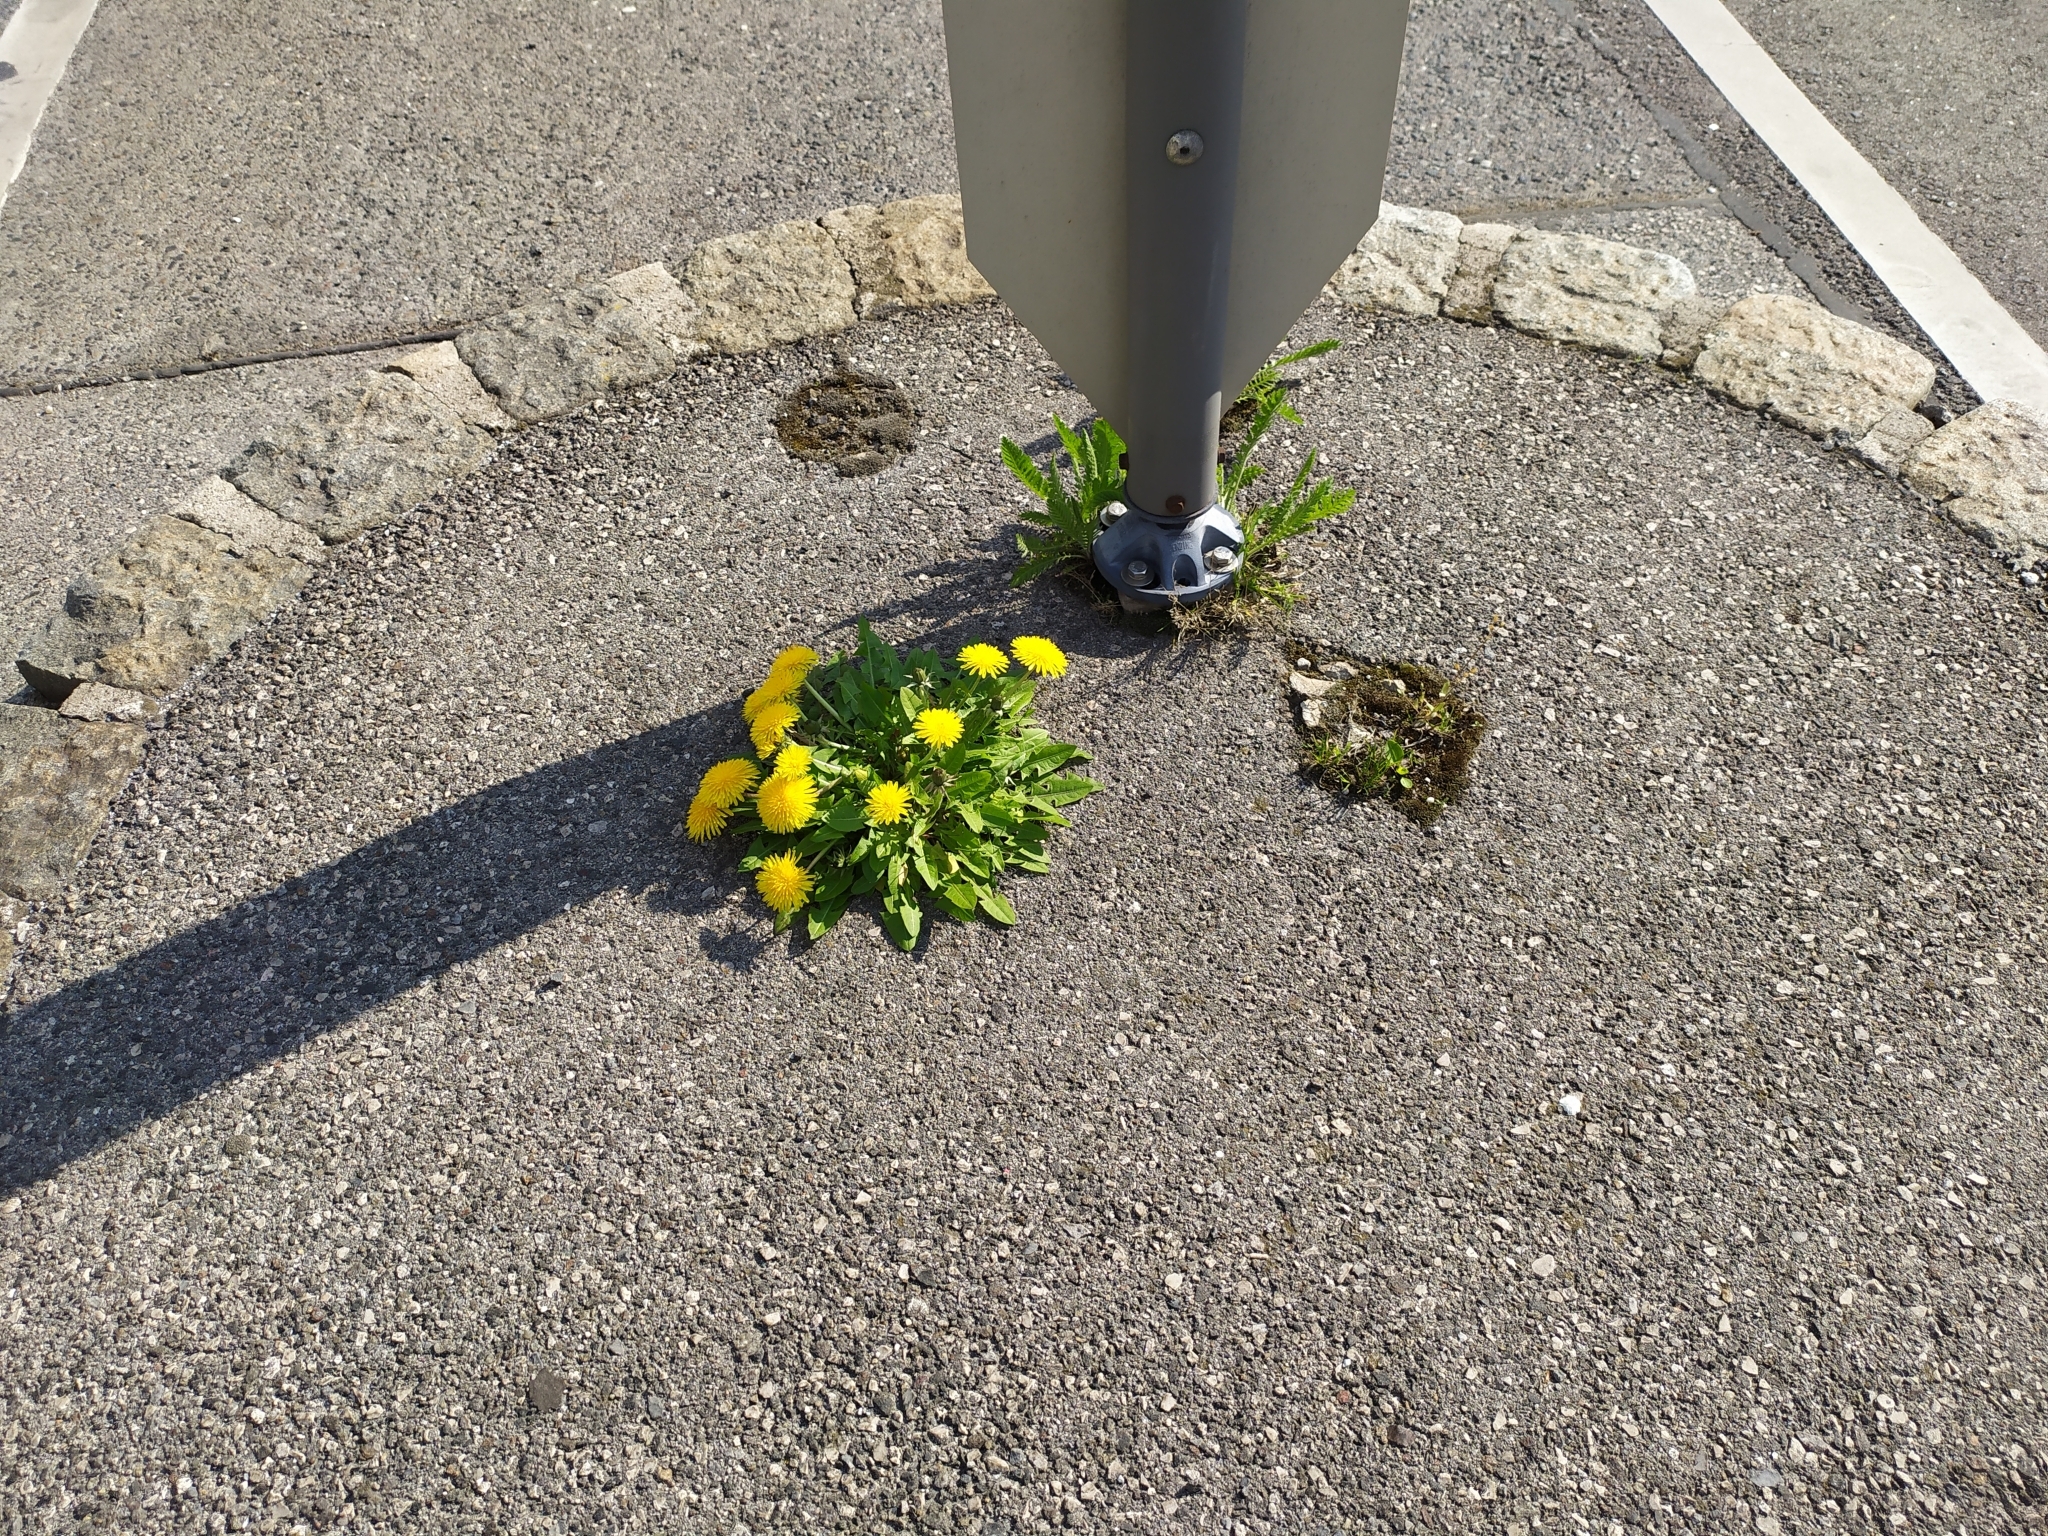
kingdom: Plantae
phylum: Tracheophyta
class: Magnoliopsida
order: Asterales
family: Asteraceae
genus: Taraxacum
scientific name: Taraxacum
